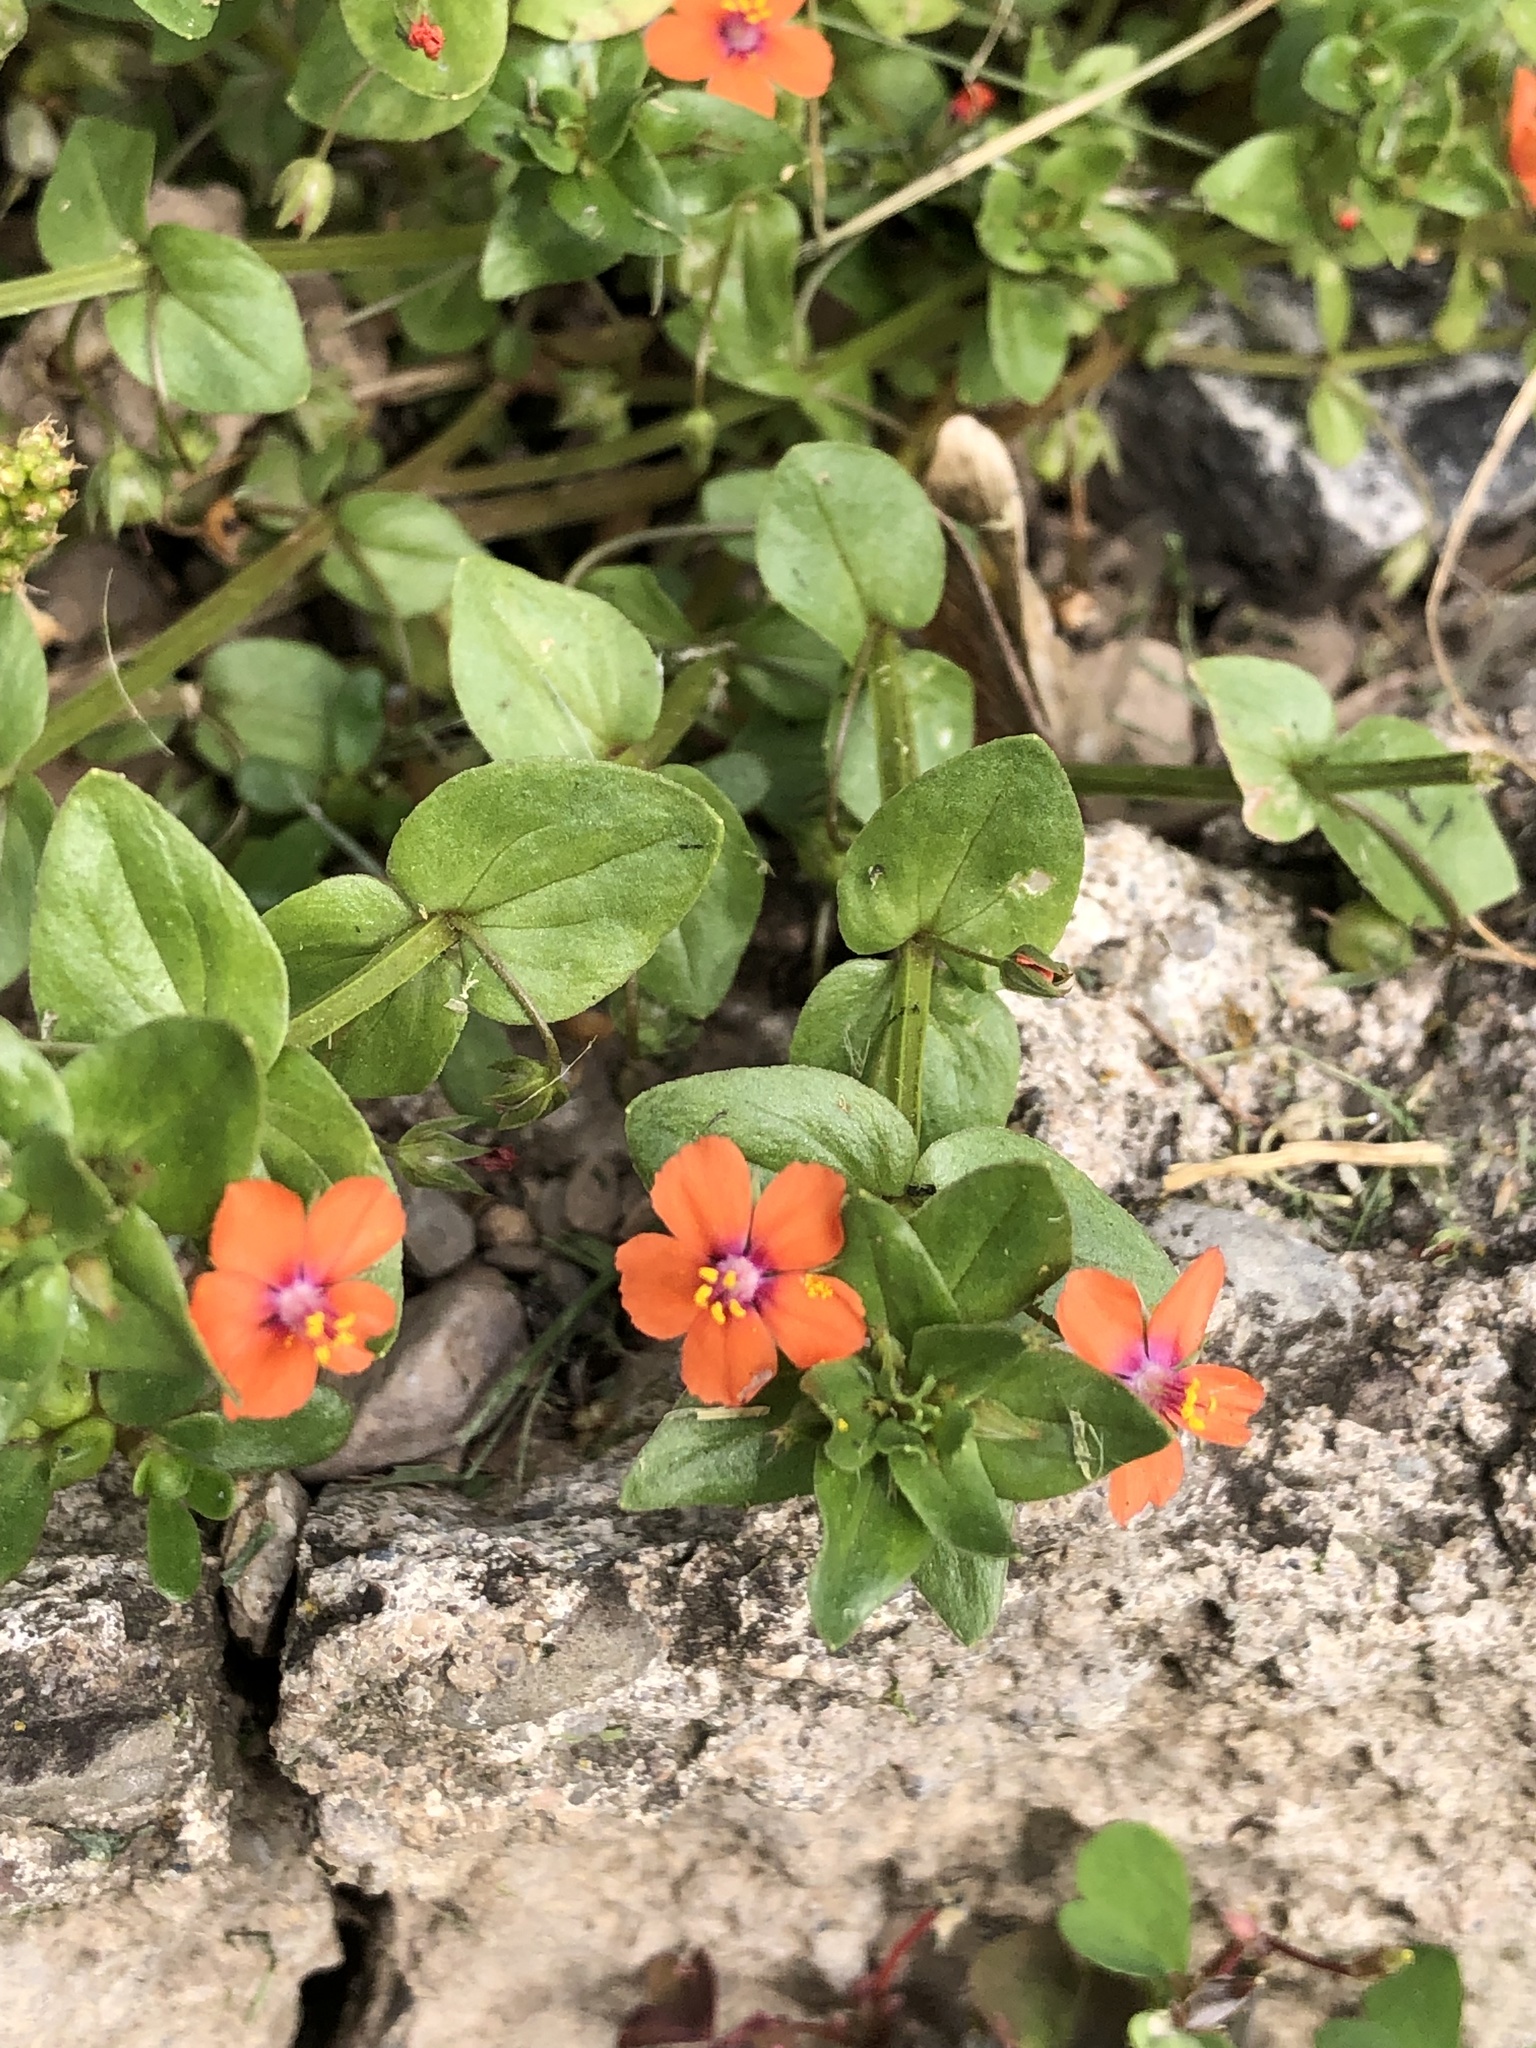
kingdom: Plantae
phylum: Tracheophyta
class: Magnoliopsida
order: Ericales
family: Primulaceae
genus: Lysimachia
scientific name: Lysimachia arvensis
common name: Scarlet pimpernel
